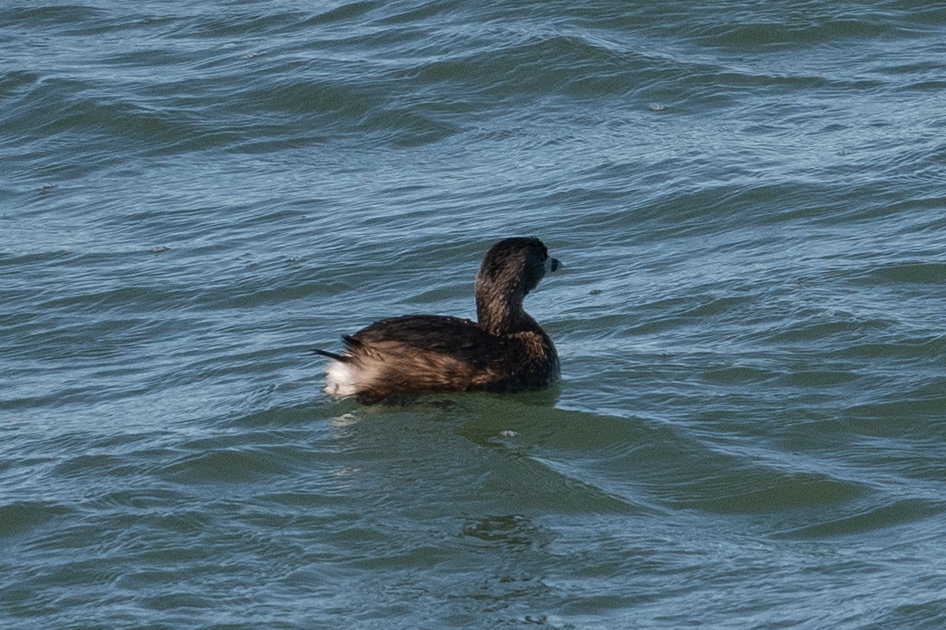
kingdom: Animalia
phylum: Chordata
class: Aves
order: Podicipediformes
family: Podicipedidae
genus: Podilymbus
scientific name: Podilymbus podiceps
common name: Pied-billed grebe
